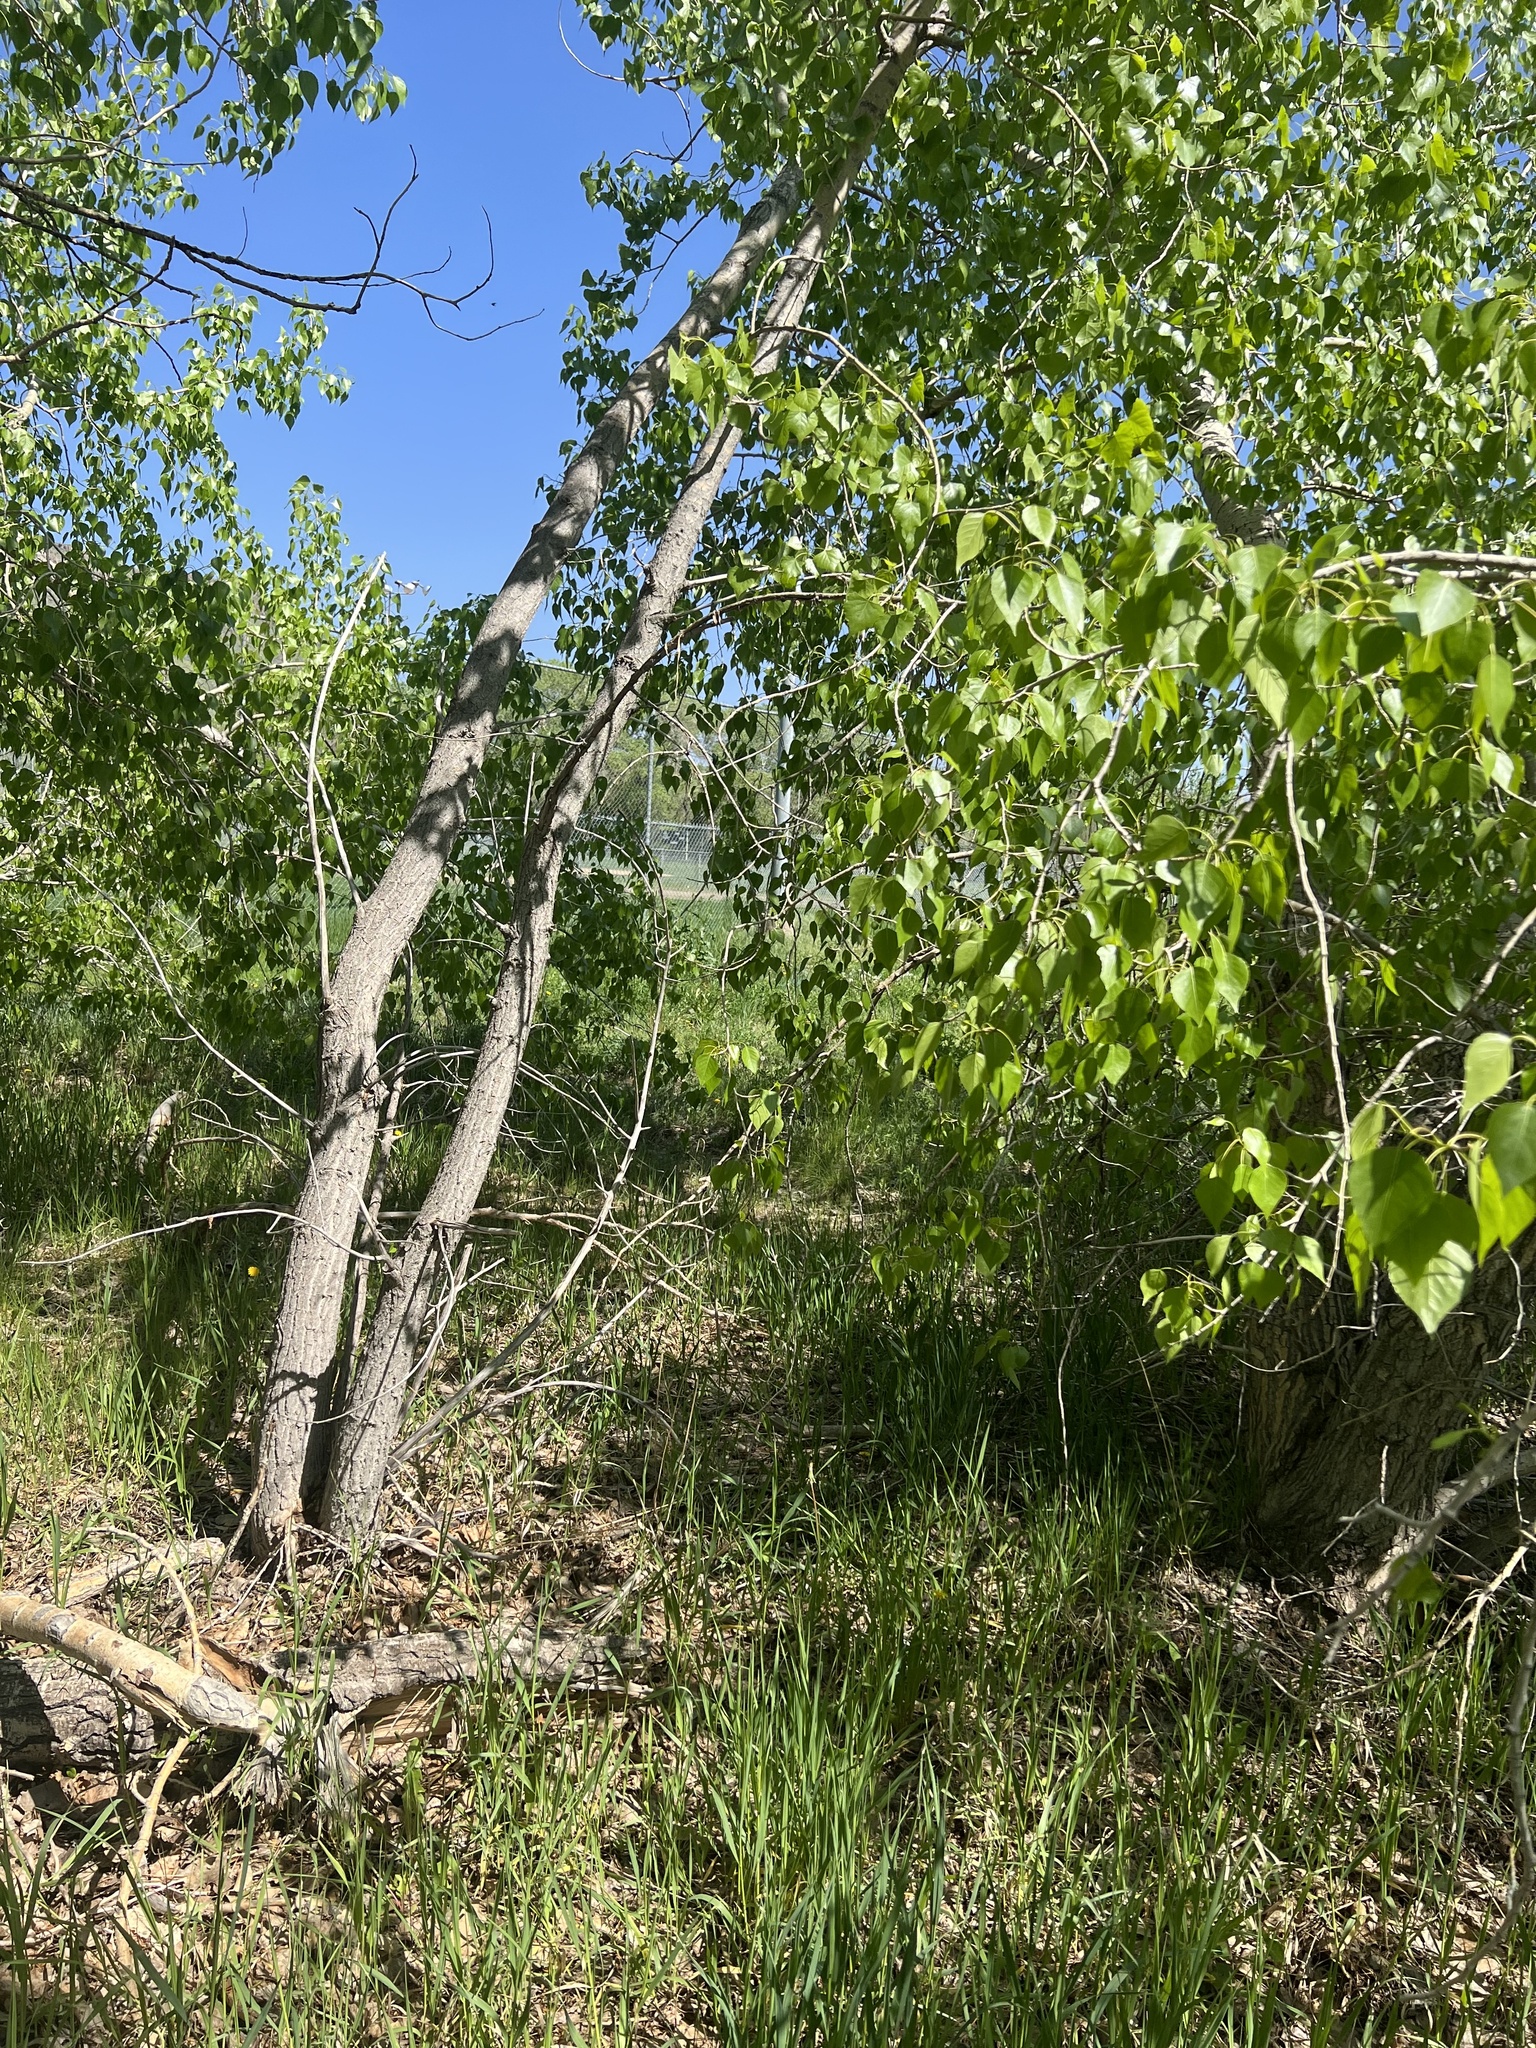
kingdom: Plantae
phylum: Tracheophyta
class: Magnoliopsida
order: Malpighiales
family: Salicaceae
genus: Populus
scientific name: Populus deltoides
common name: Eastern cottonwood
